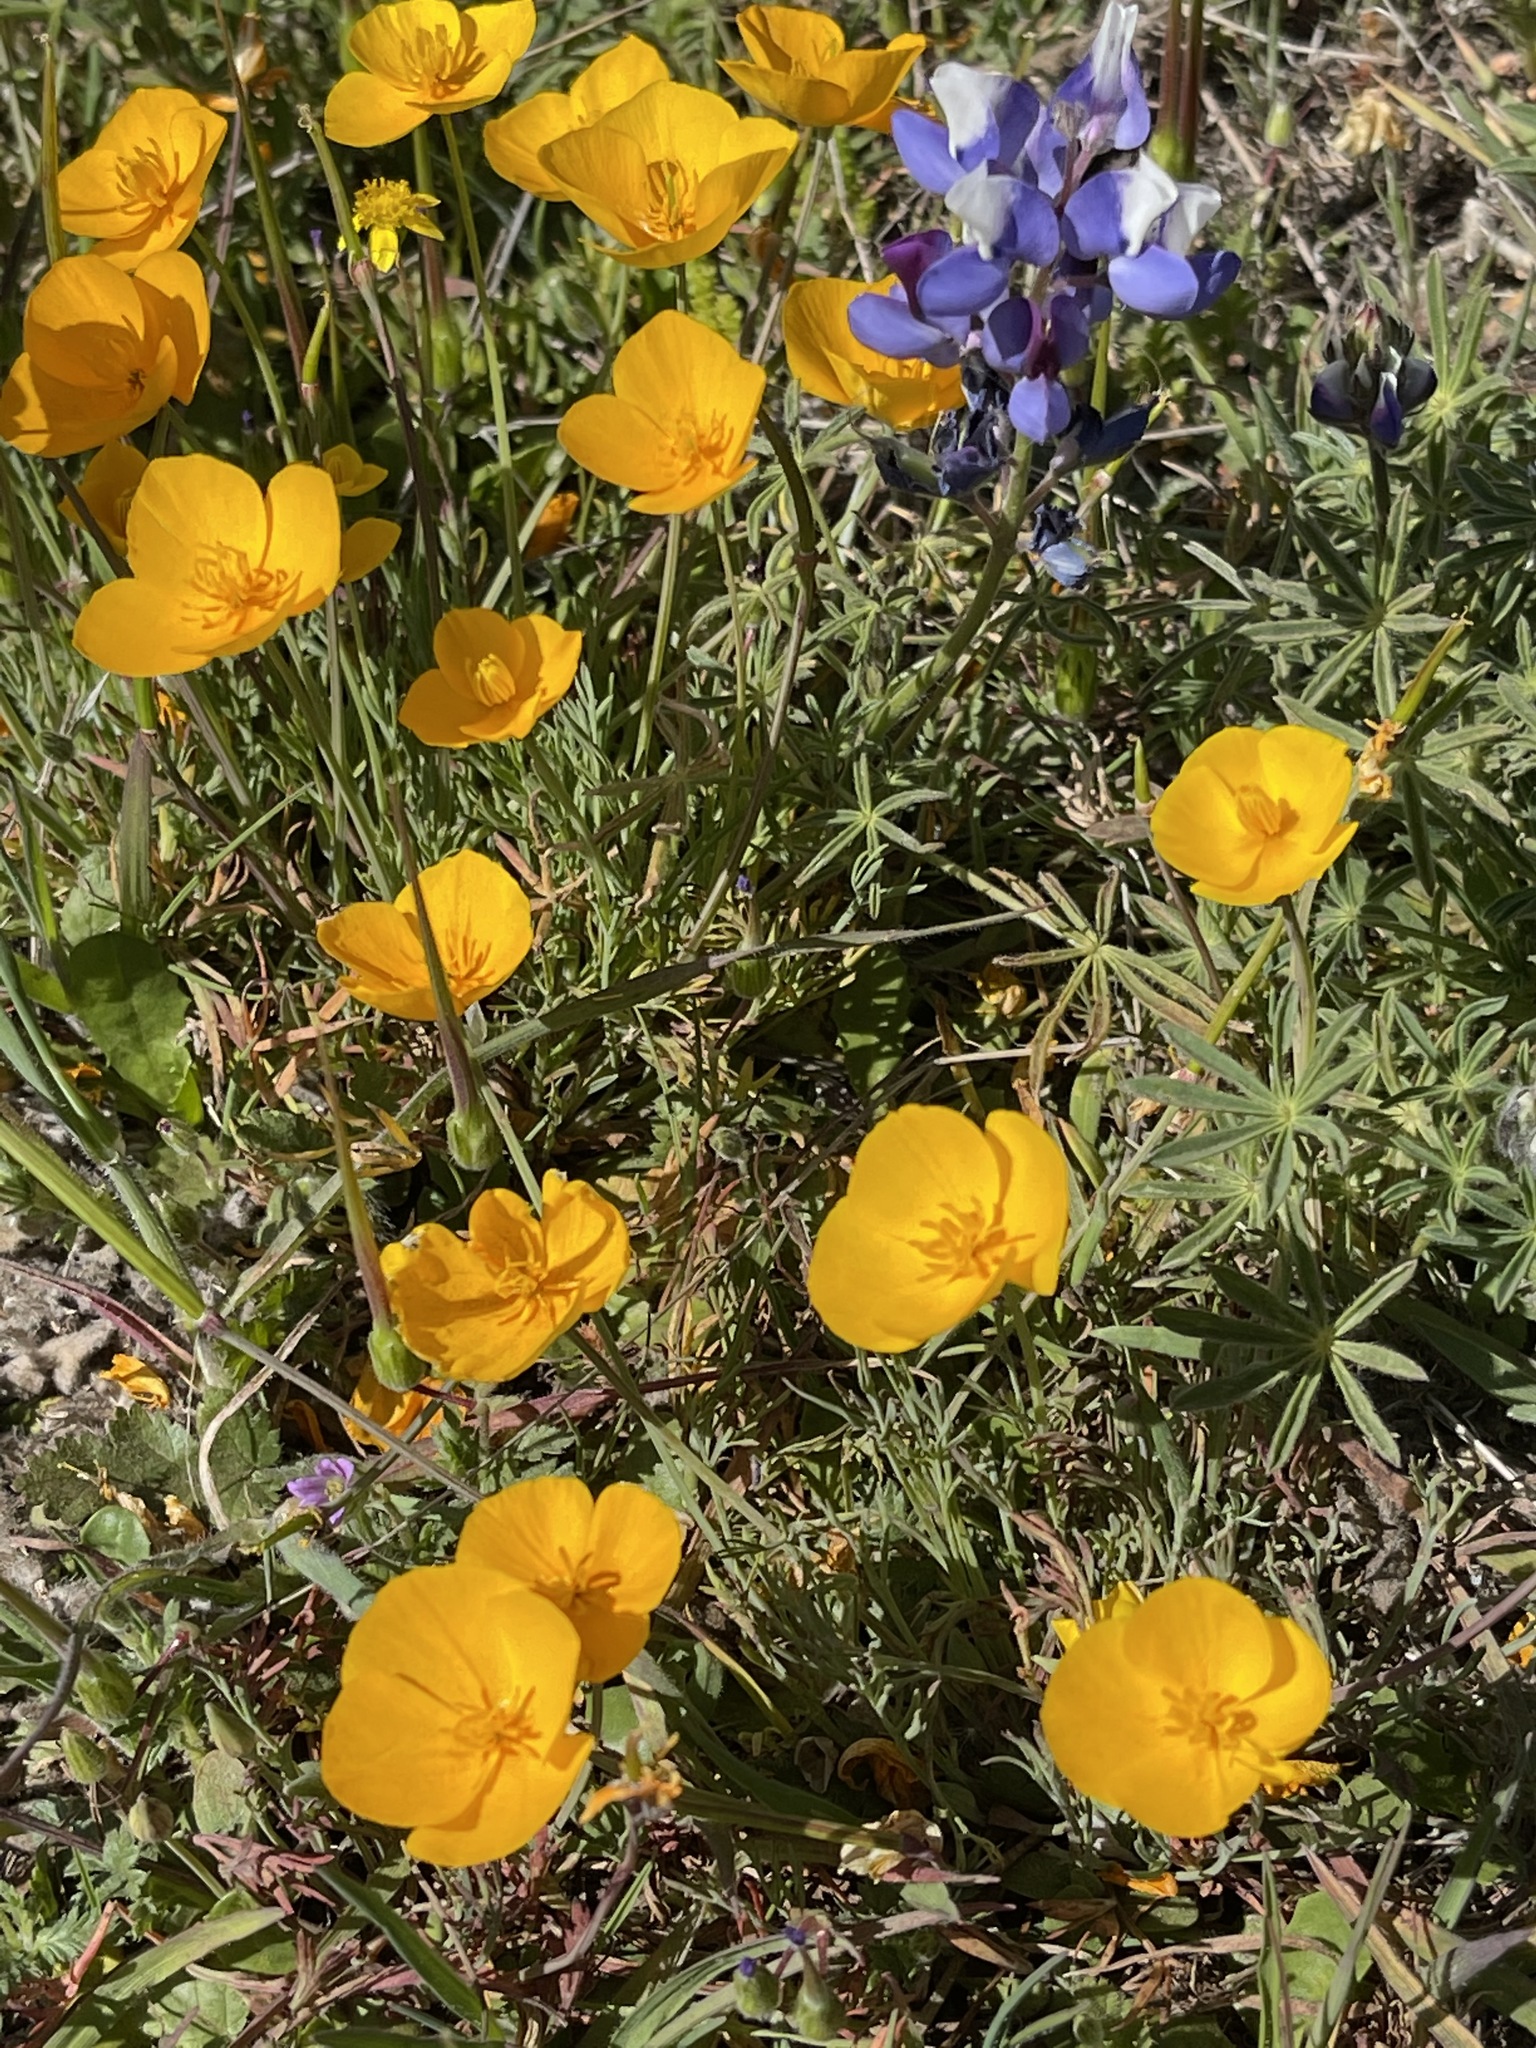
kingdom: Plantae
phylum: Tracheophyta
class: Magnoliopsida
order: Ranunculales
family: Papaveraceae
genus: Eschscholzia
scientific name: Eschscholzia lobbii
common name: Frying-pans
